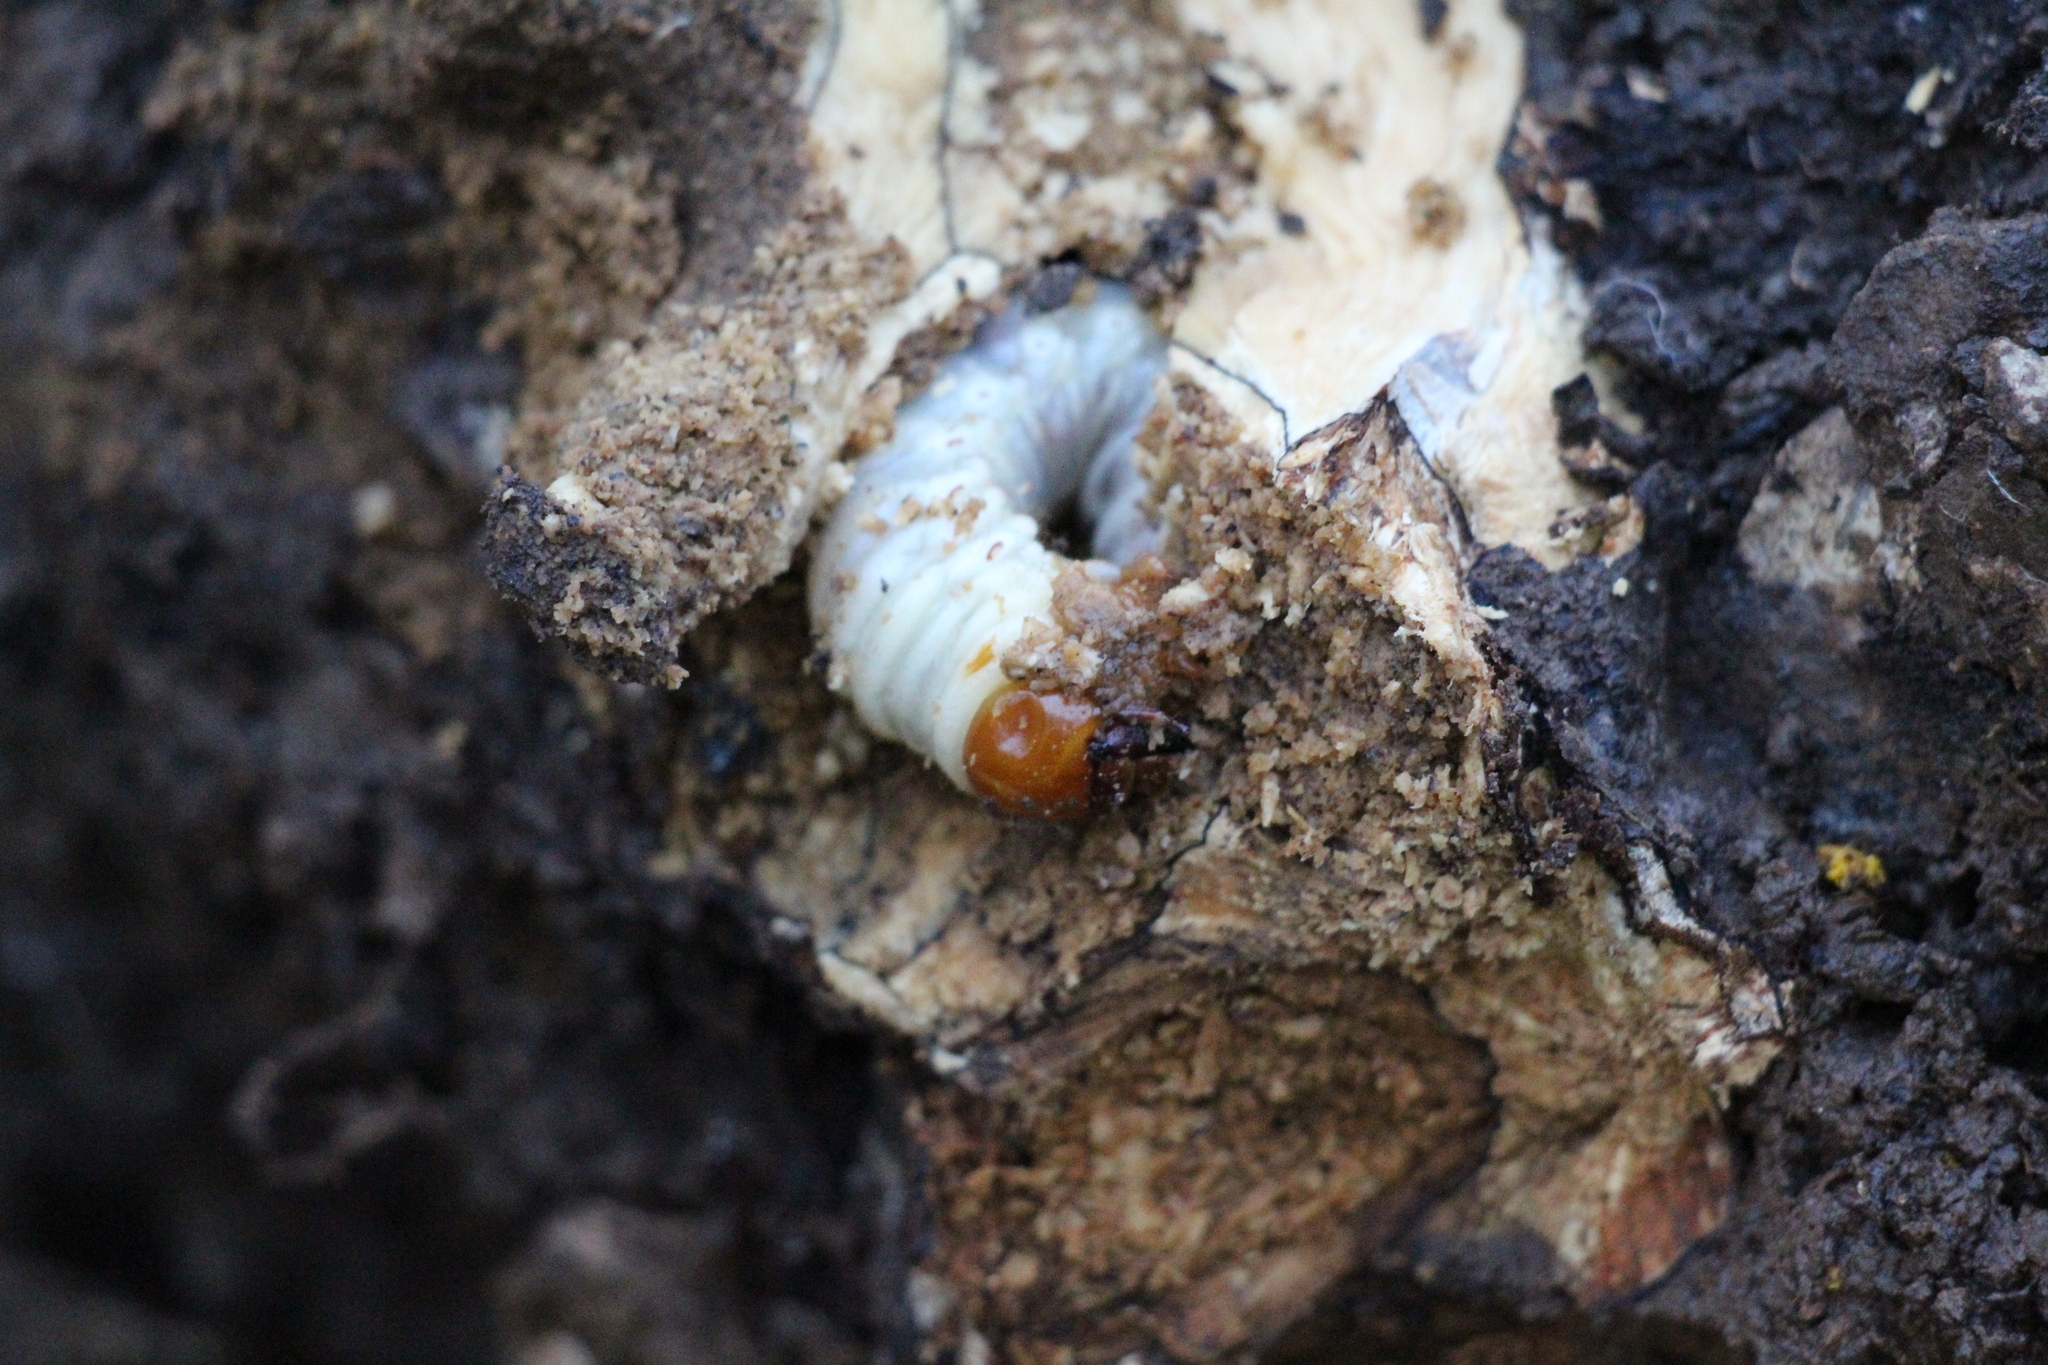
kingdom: Animalia
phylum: Arthropoda
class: Insecta
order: Coleoptera
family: Lucanidae
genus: Lucanus
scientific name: Lucanus cervus
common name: Stag beetle
